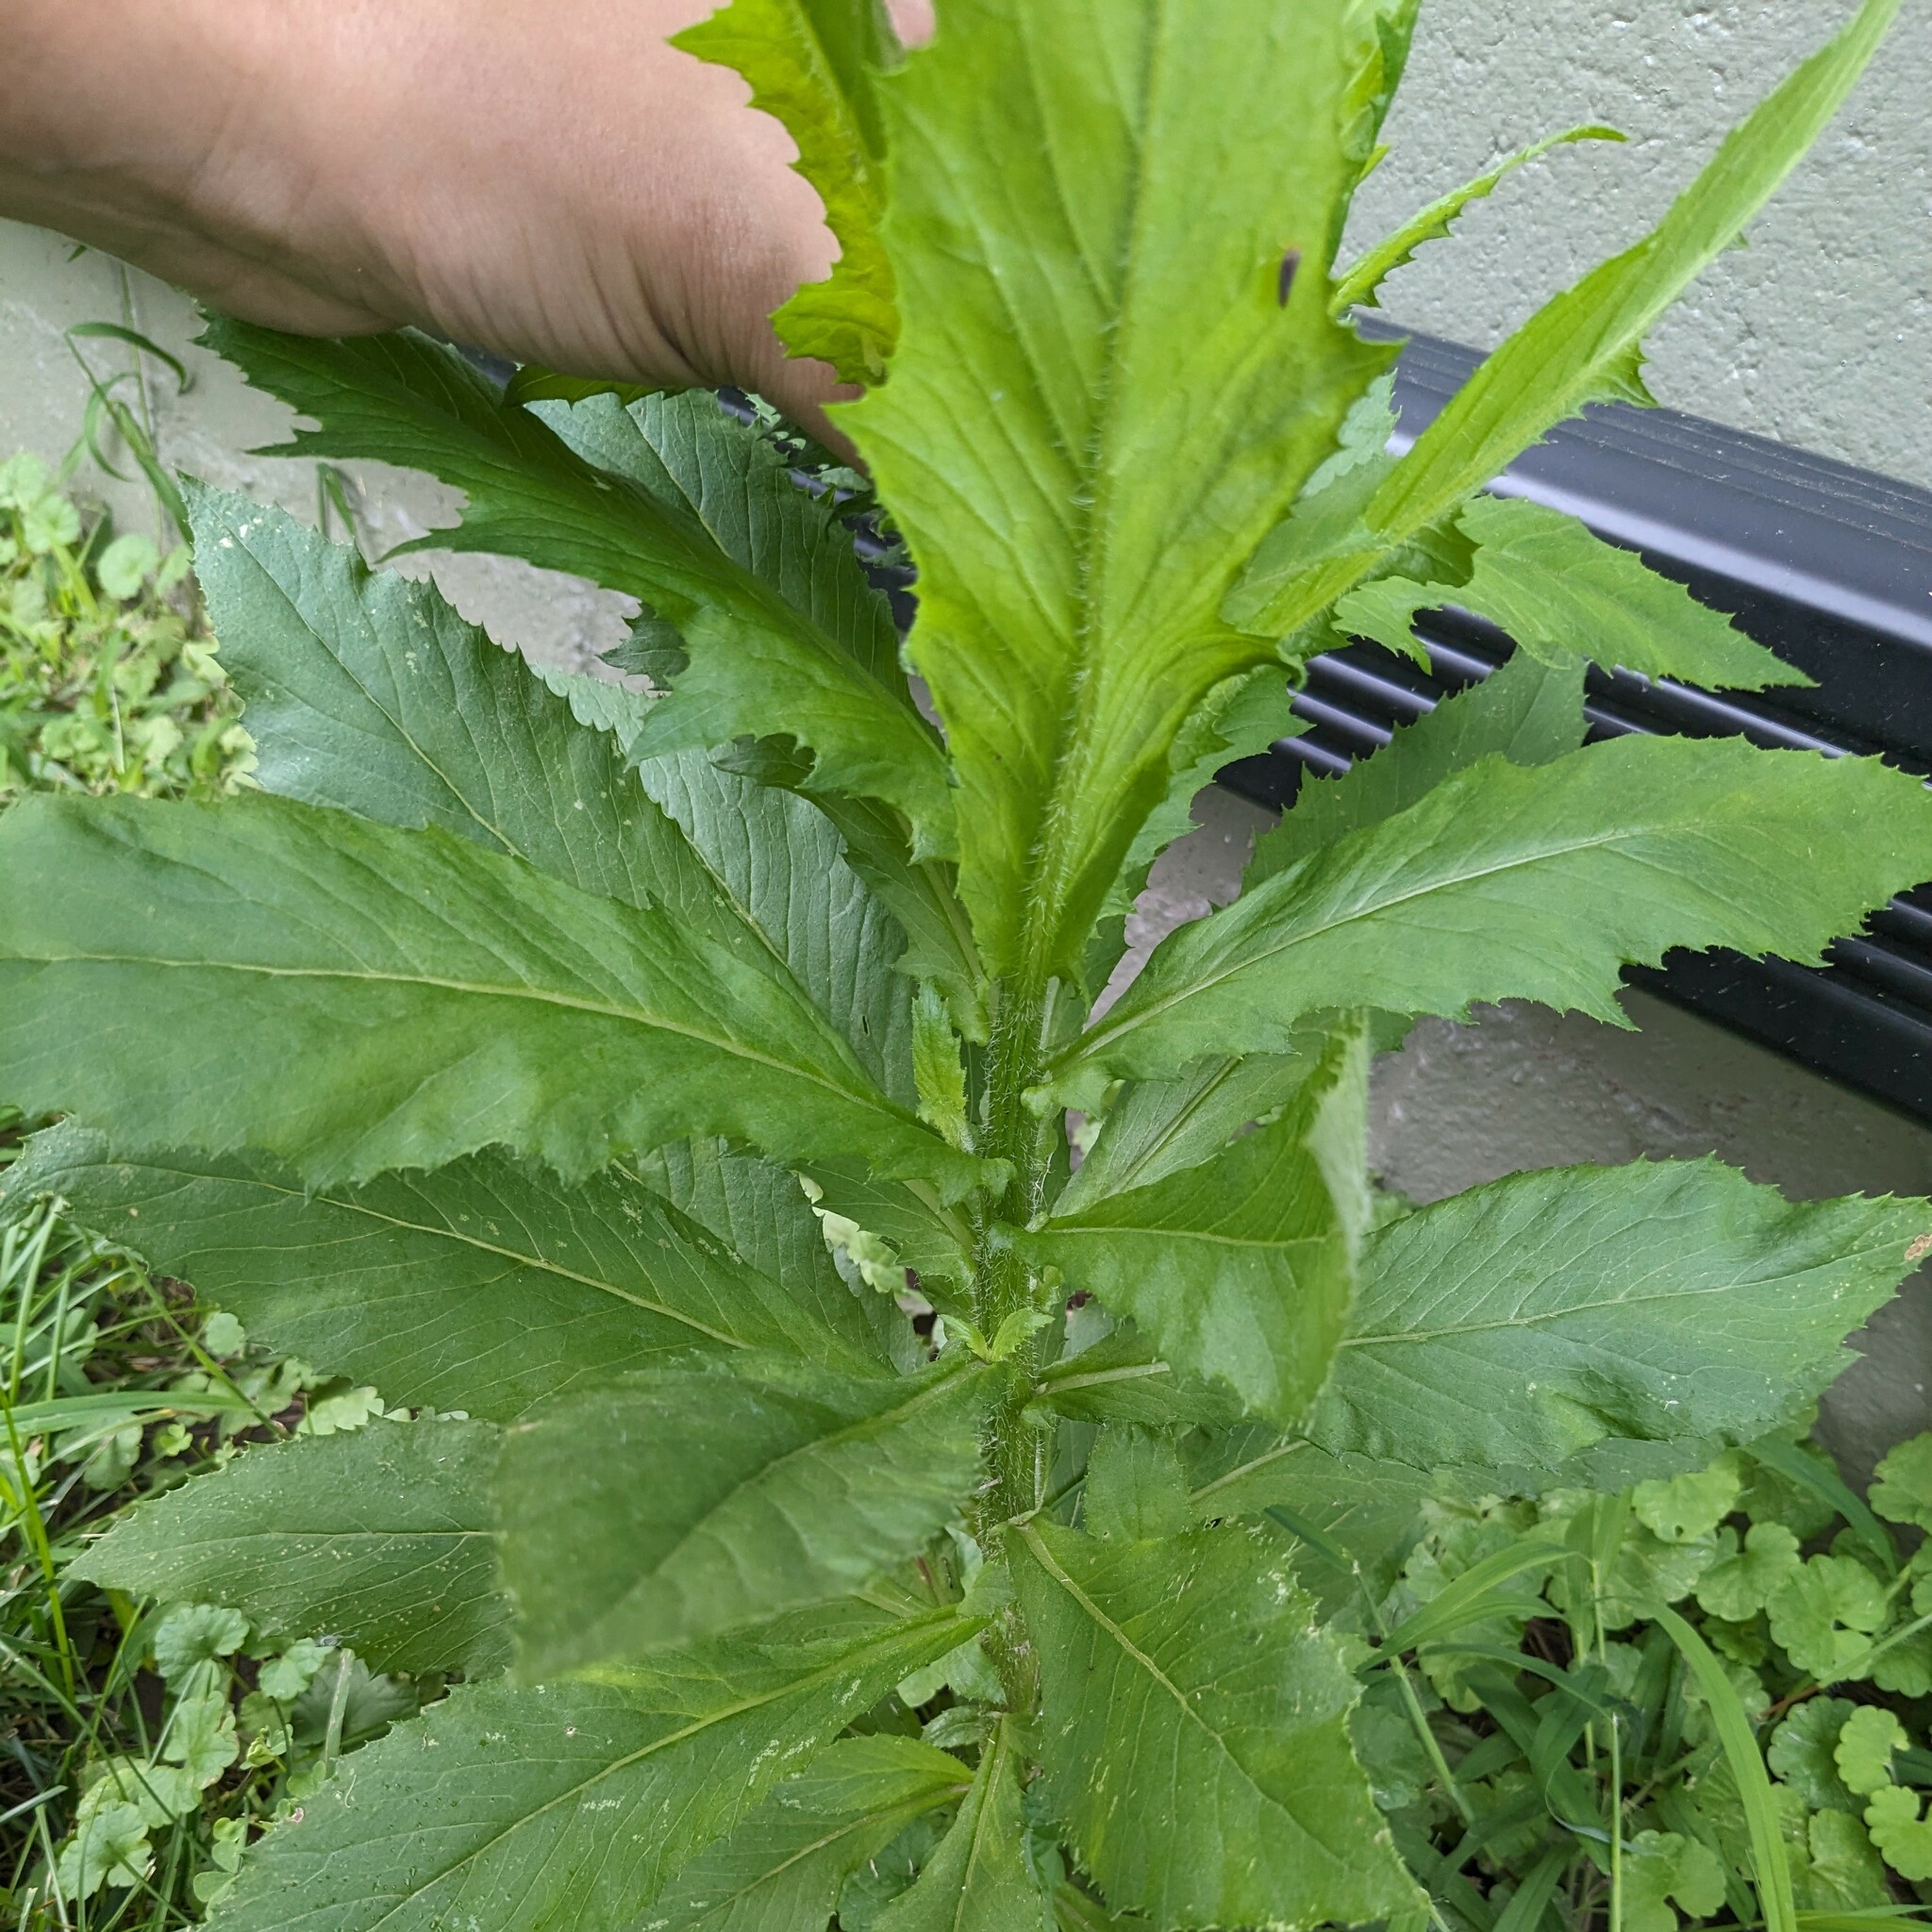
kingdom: Plantae
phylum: Tracheophyta
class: Magnoliopsida
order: Asterales
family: Asteraceae
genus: Erechtites
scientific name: Erechtites hieraciifolius
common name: American burnweed
